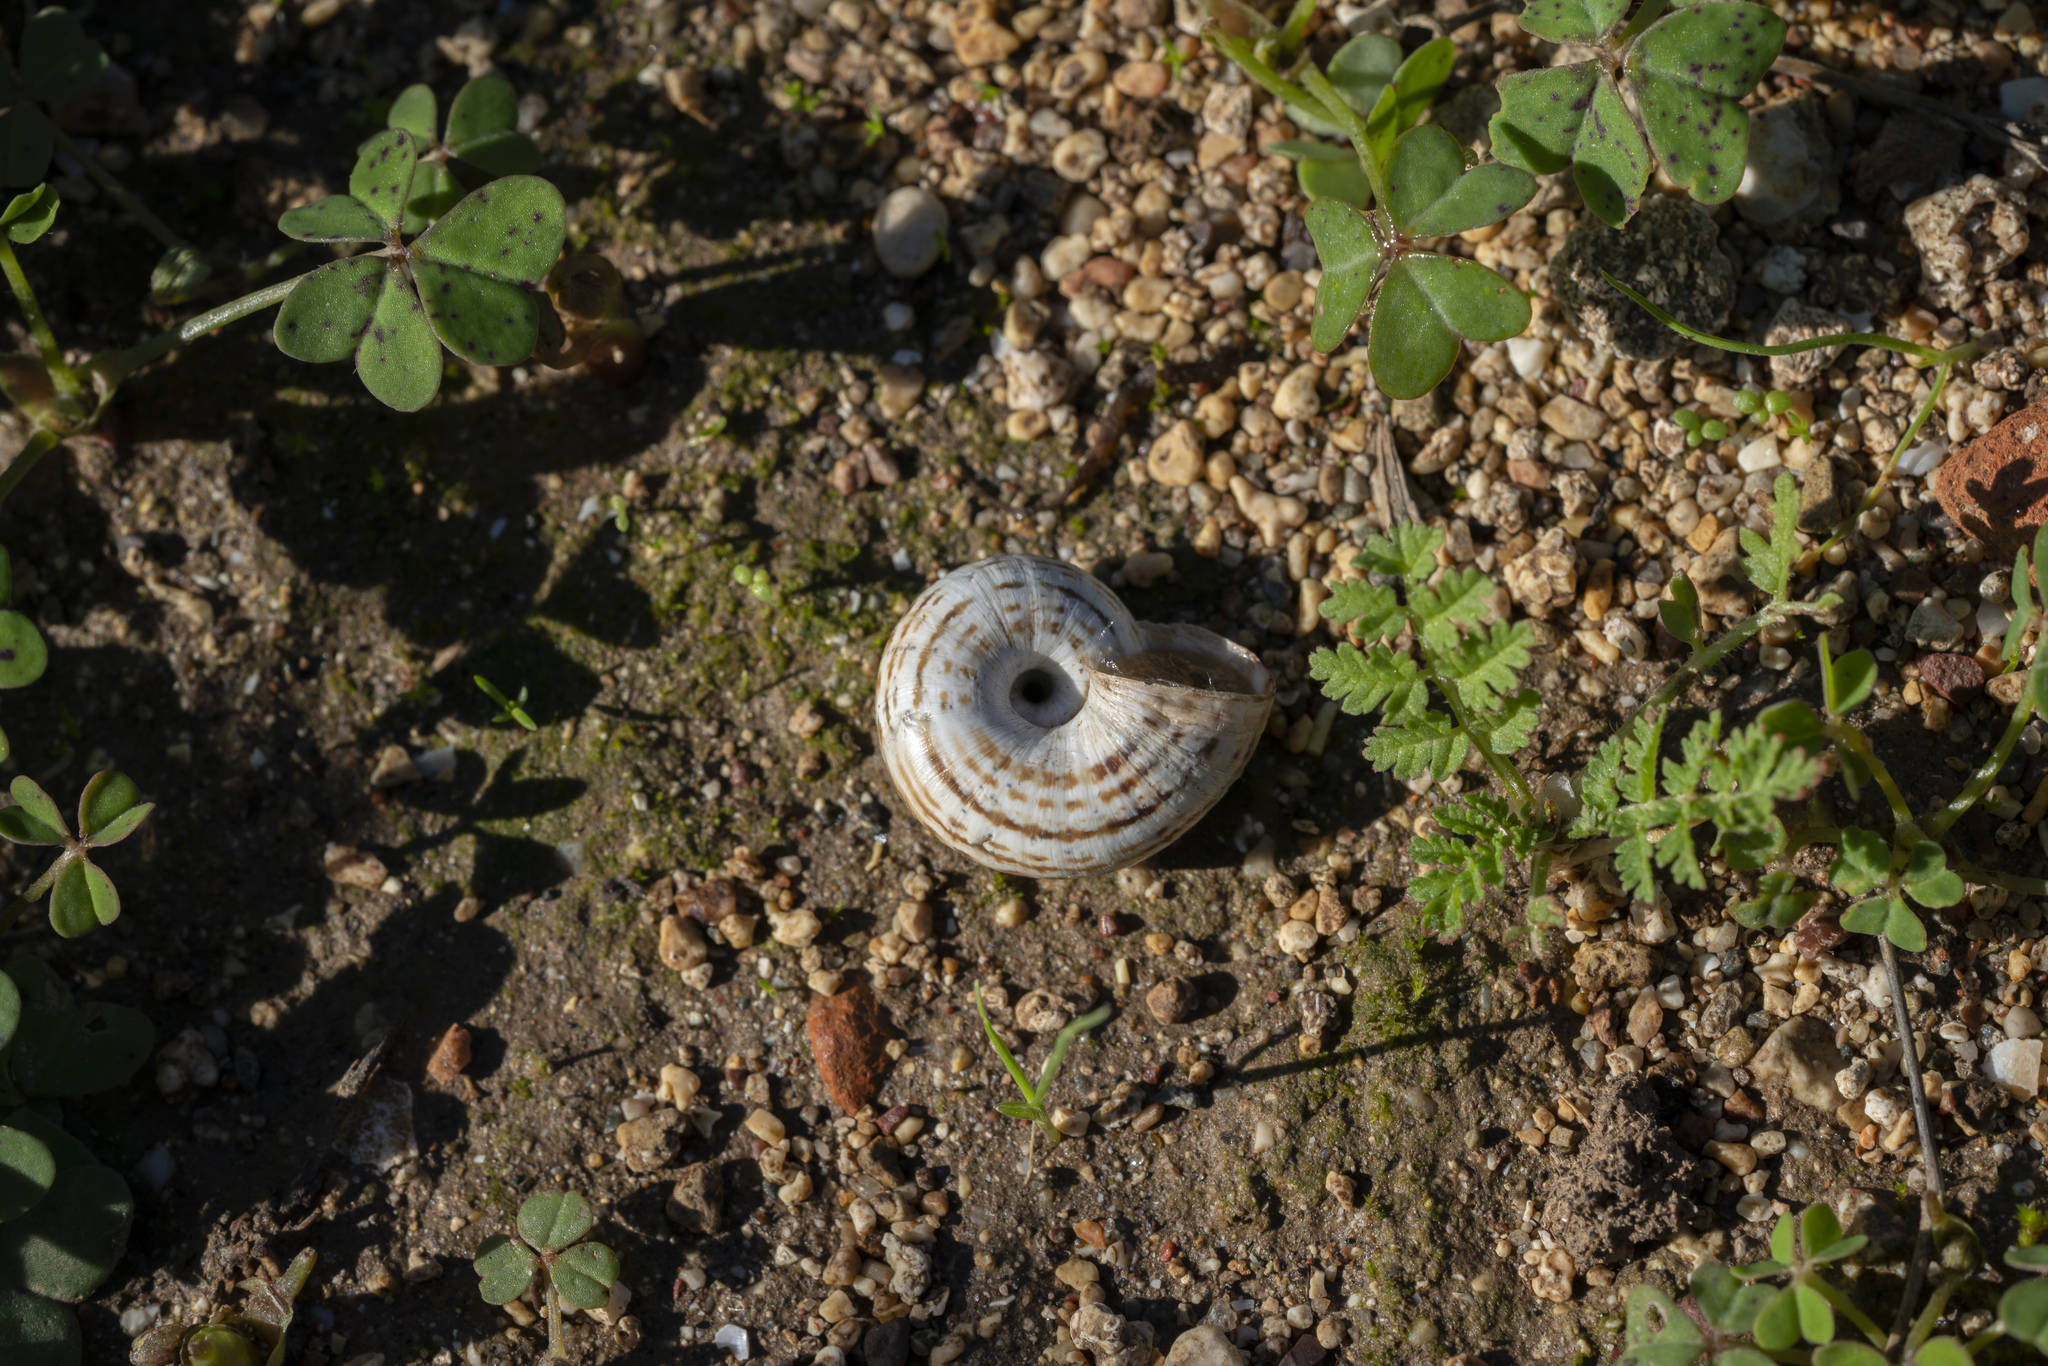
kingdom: Animalia
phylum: Mollusca
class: Gastropoda
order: Stylommatophora
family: Geomitridae
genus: Xeropicta
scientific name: Xeropicta krynickii
